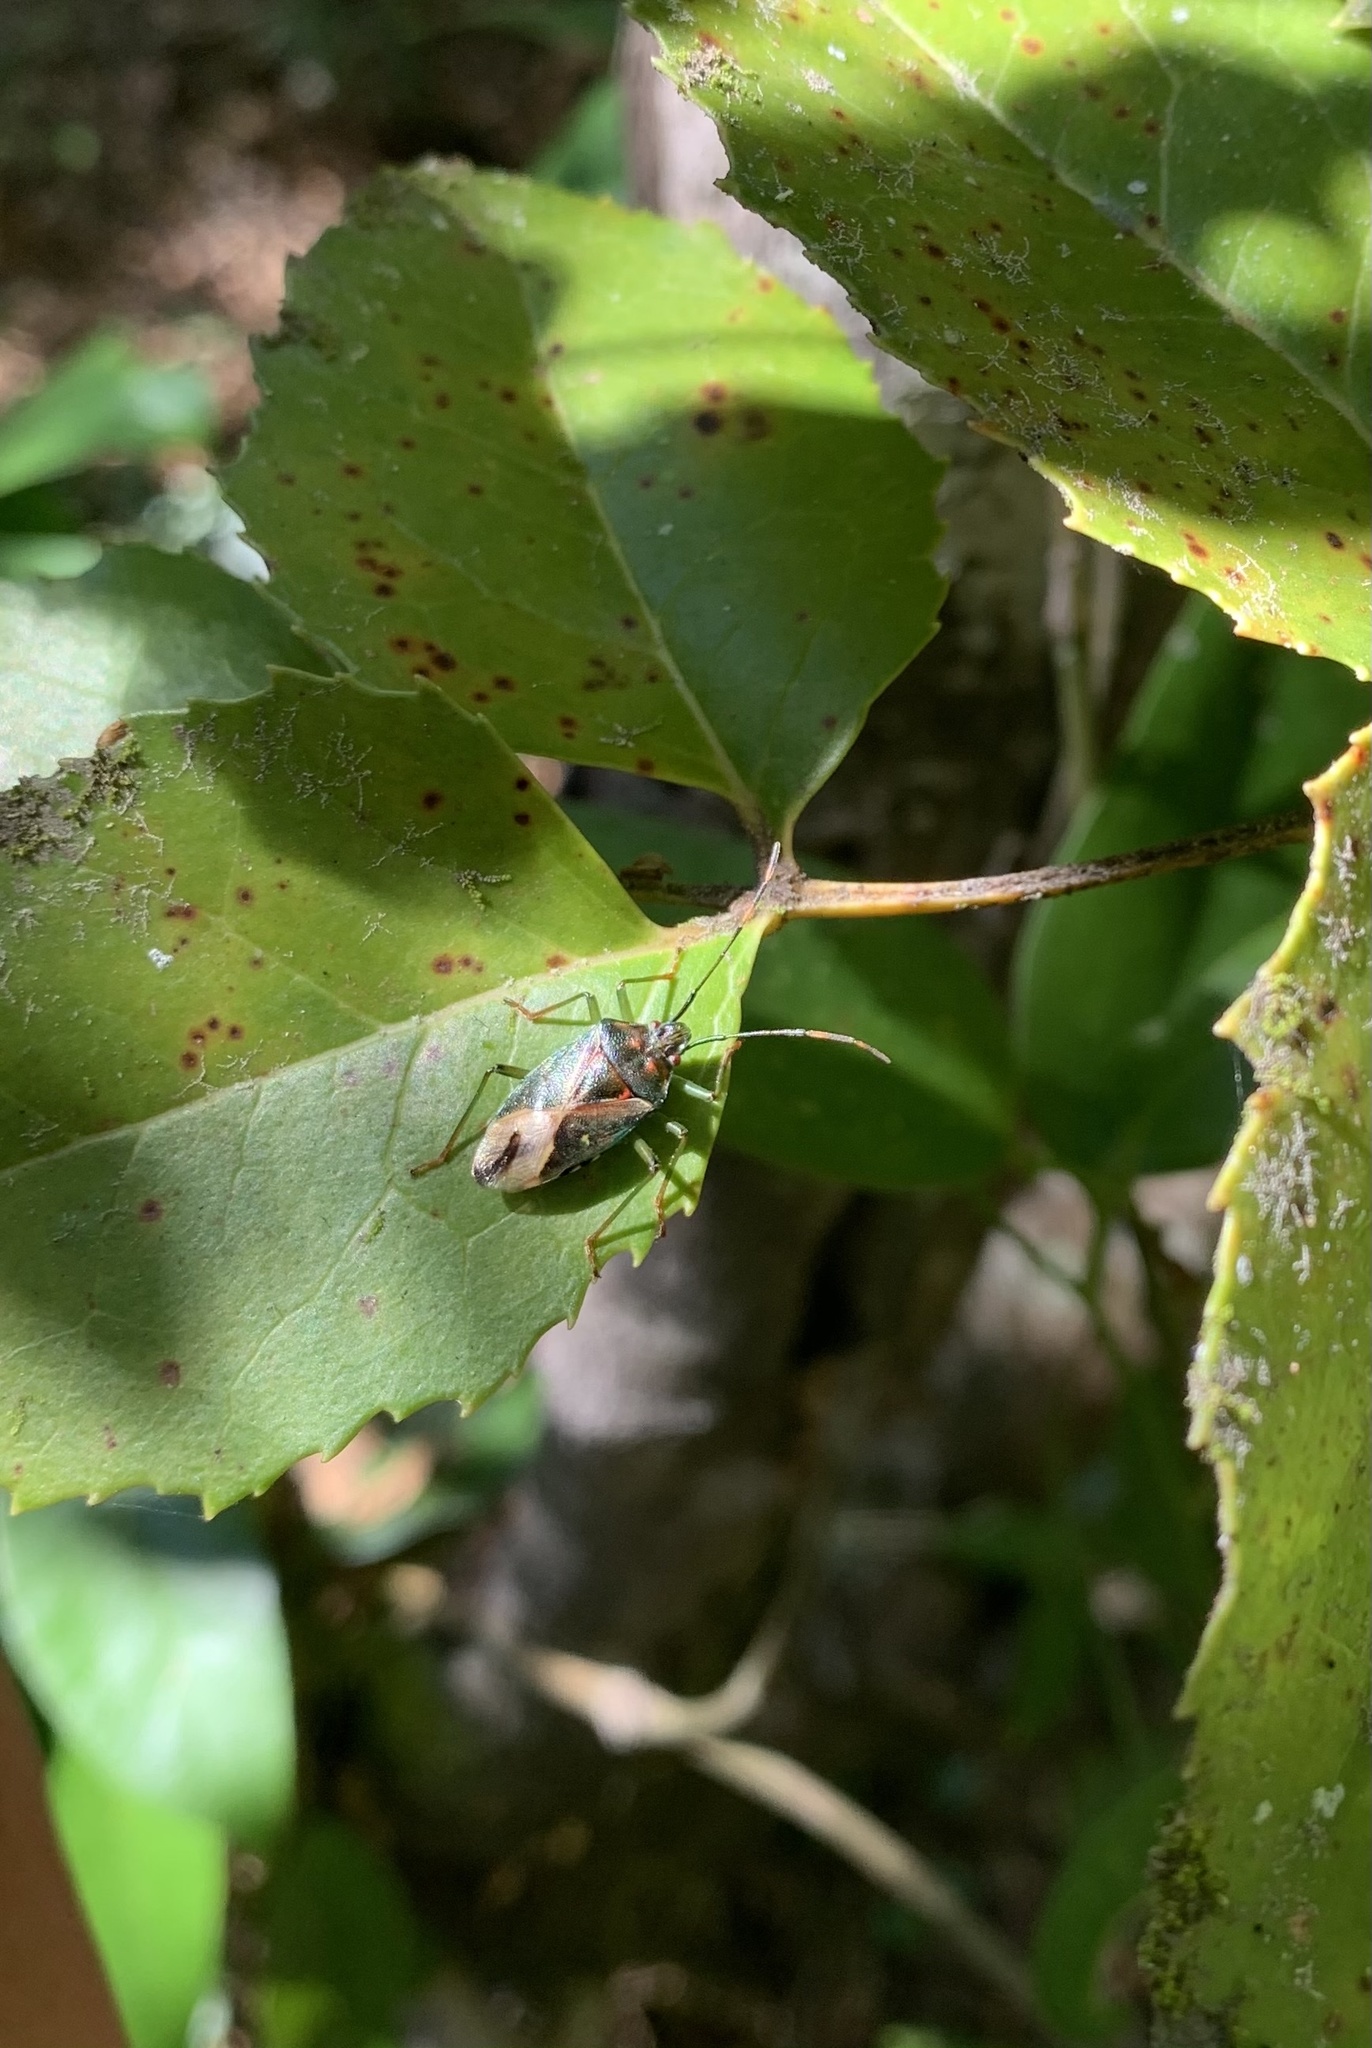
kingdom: Animalia
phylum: Arthropoda
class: Insecta
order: Hemiptera
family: Acanthosomatidae
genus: Planois
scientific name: Planois gayi
